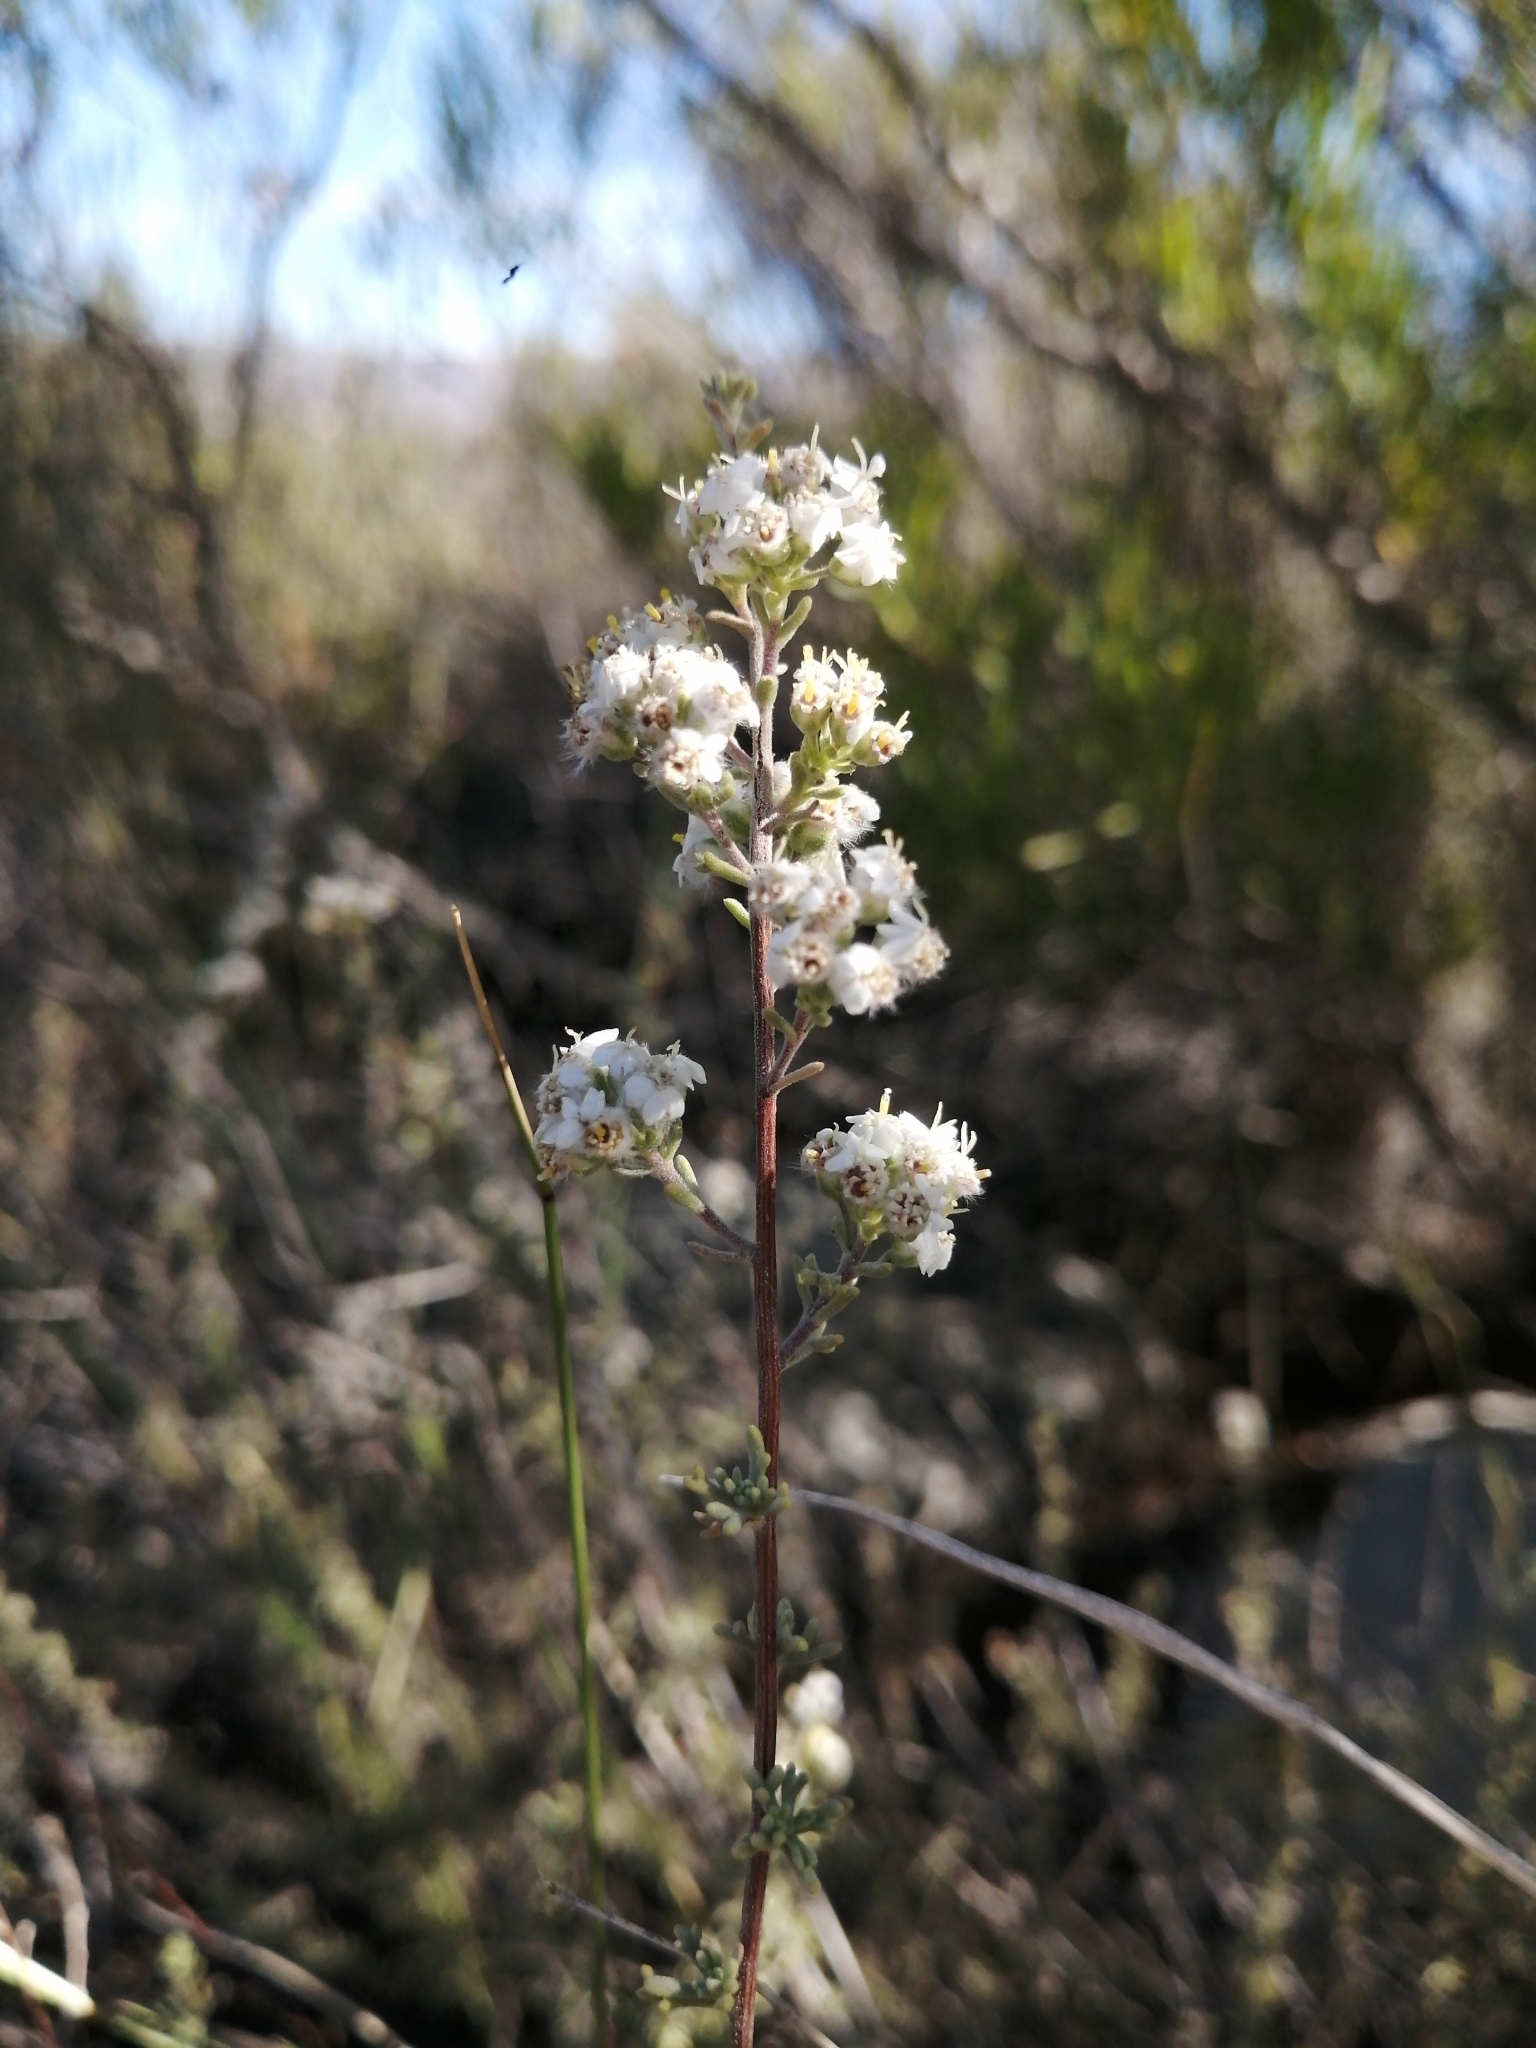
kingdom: Plantae
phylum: Tracheophyta
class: Magnoliopsida
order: Asterales
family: Asteraceae
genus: Eriocephalus
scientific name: Eriocephalus capitellatus
